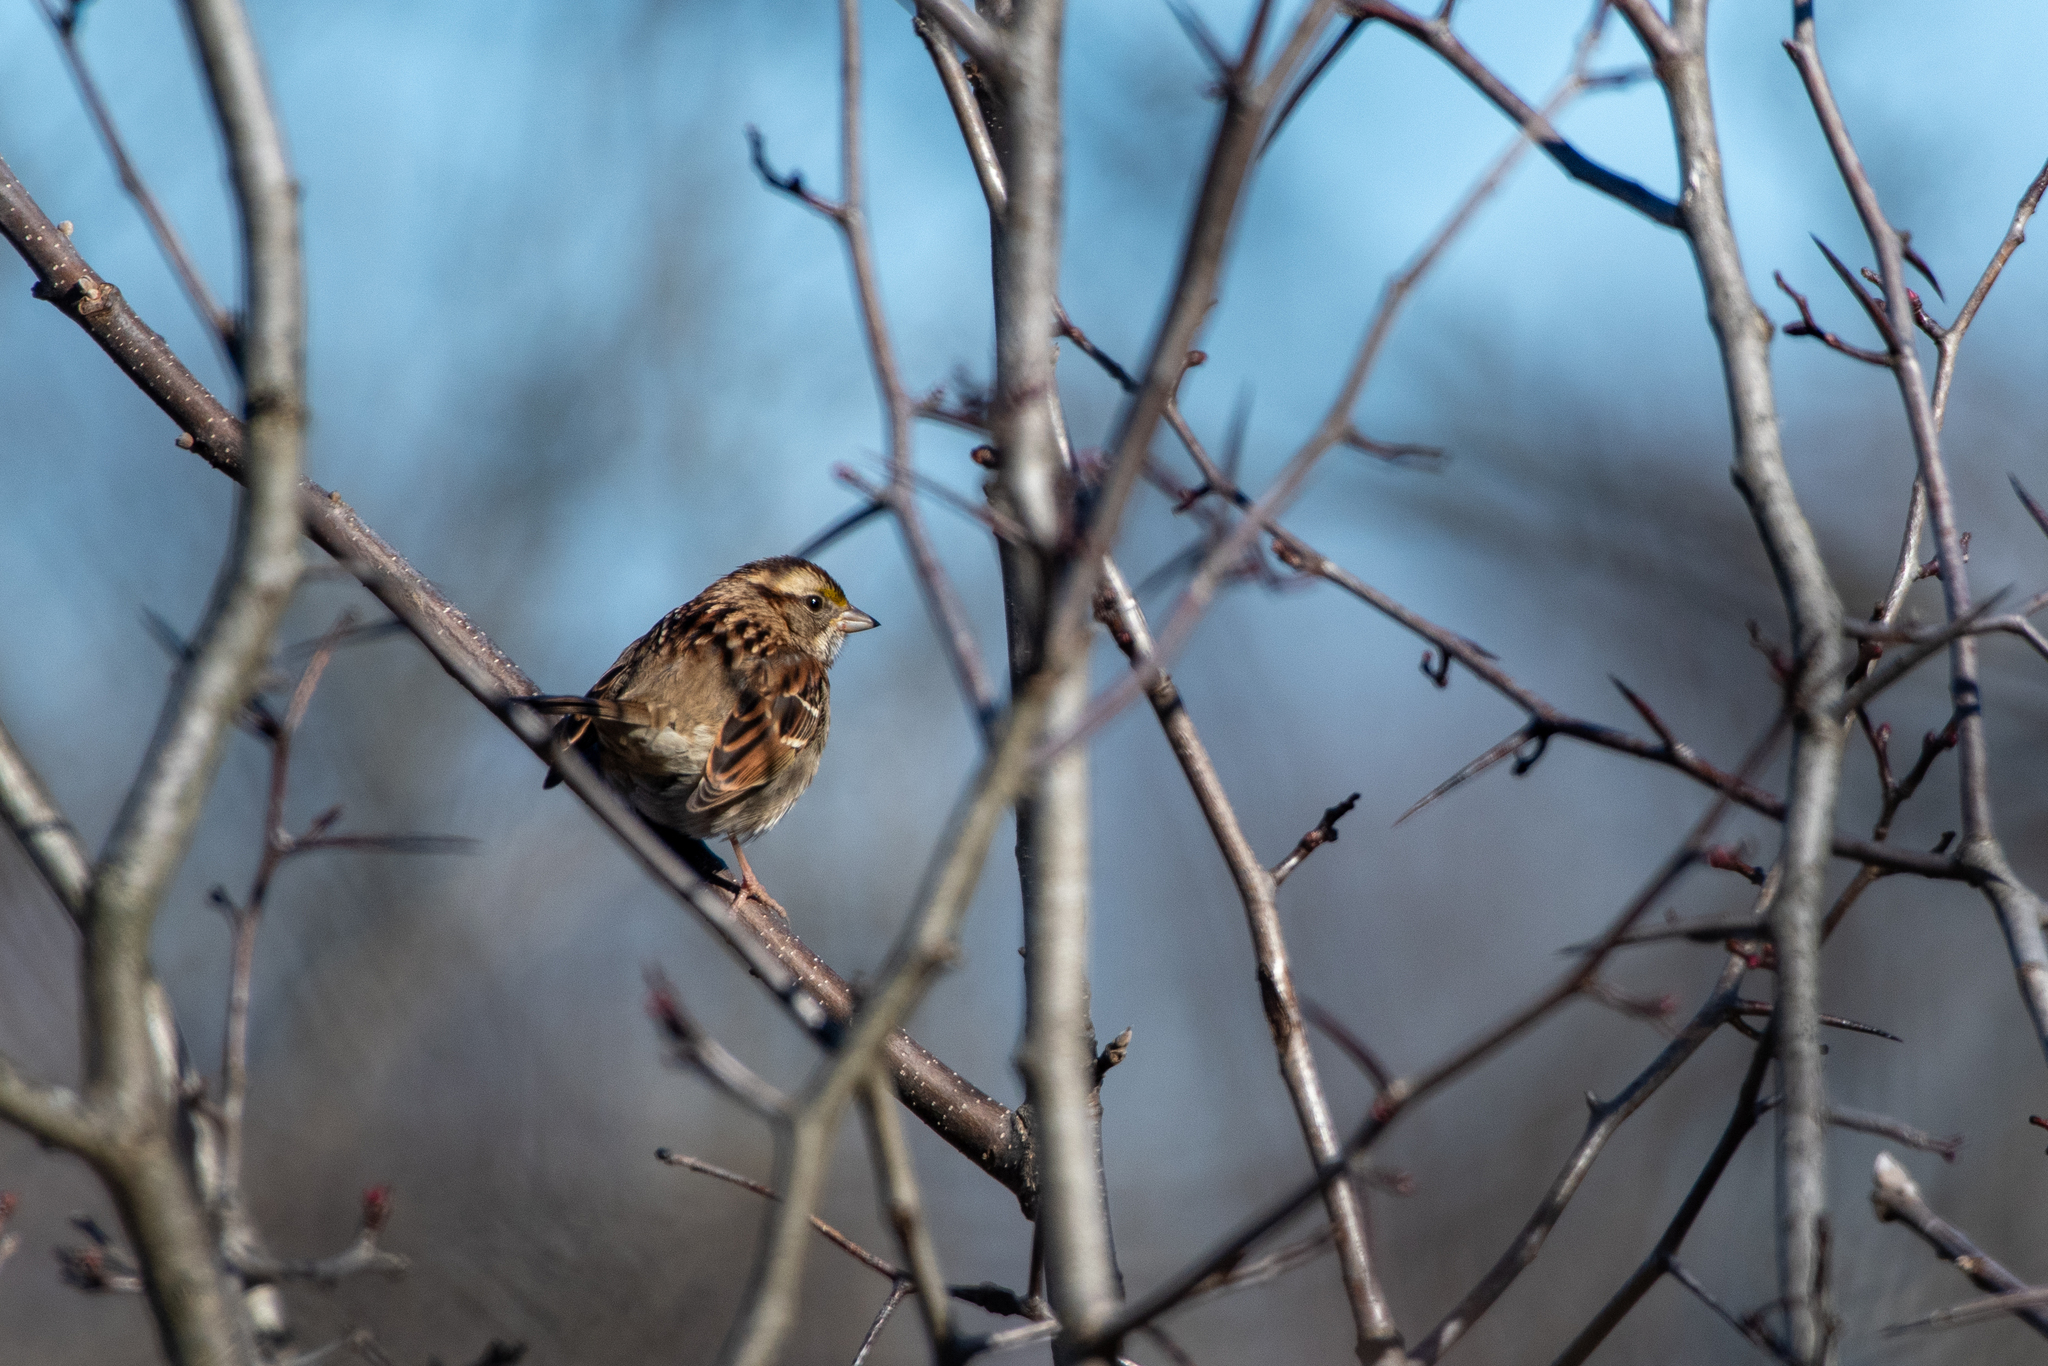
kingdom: Animalia
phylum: Chordata
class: Aves
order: Passeriformes
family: Passerellidae
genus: Zonotrichia
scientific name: Zonotrichia albicollis
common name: White-throated sparrow
